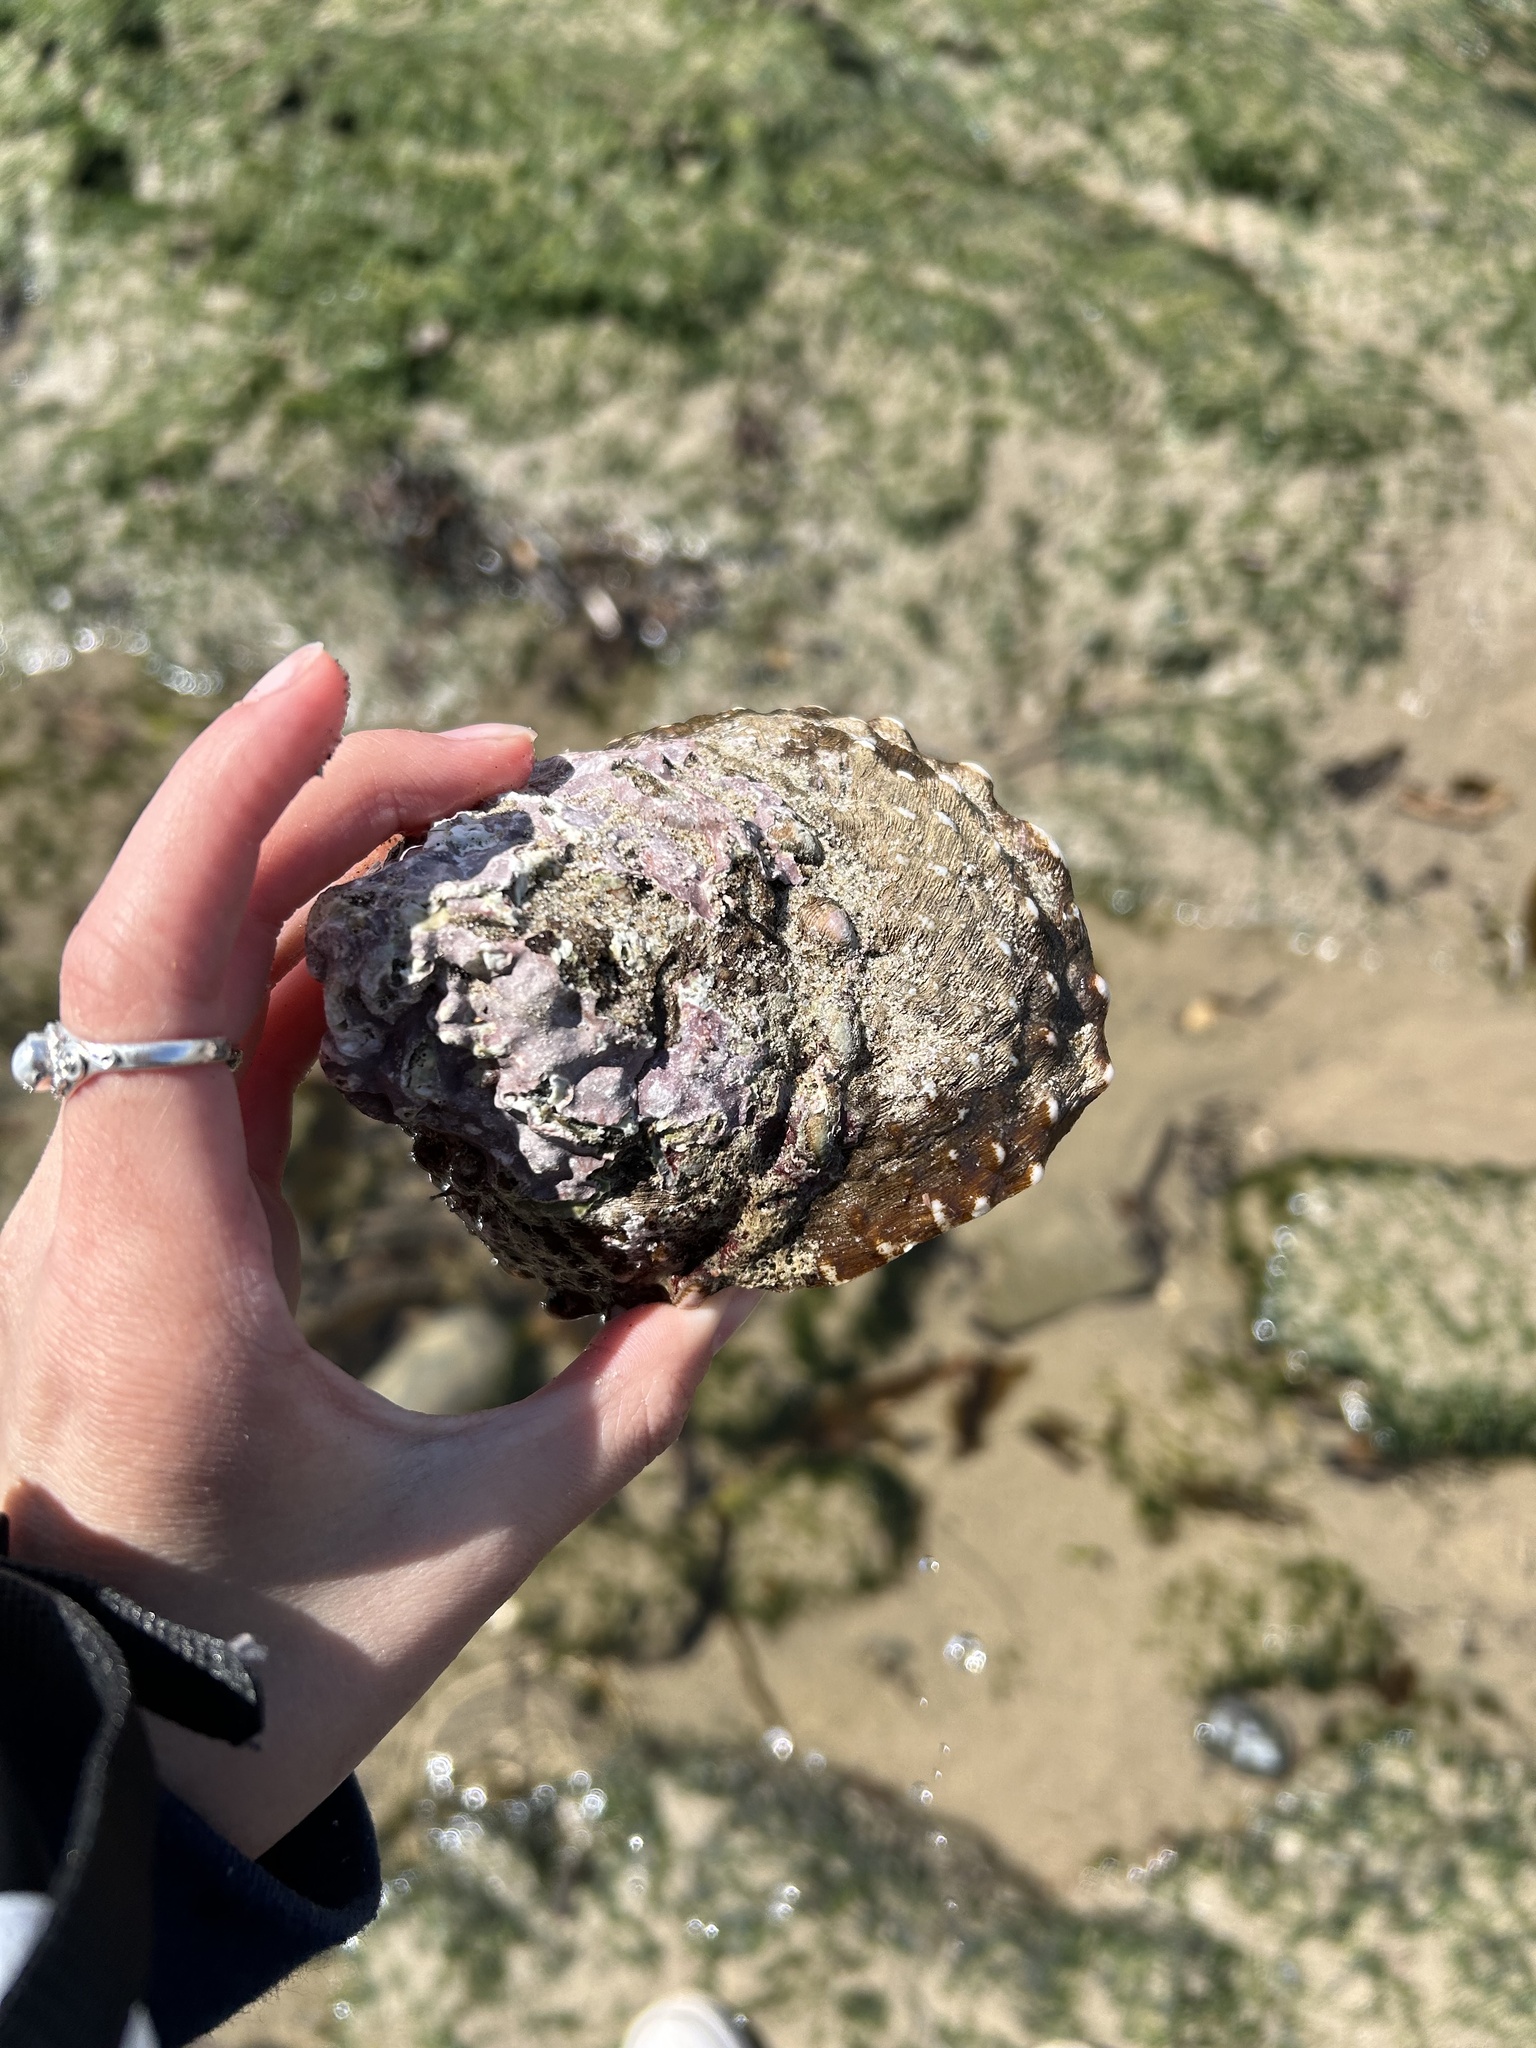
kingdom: Animalia
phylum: Mollusca
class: Gastropoda
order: Trochida
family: Turbinidae
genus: Megastraea
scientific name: Megastraea undosa
